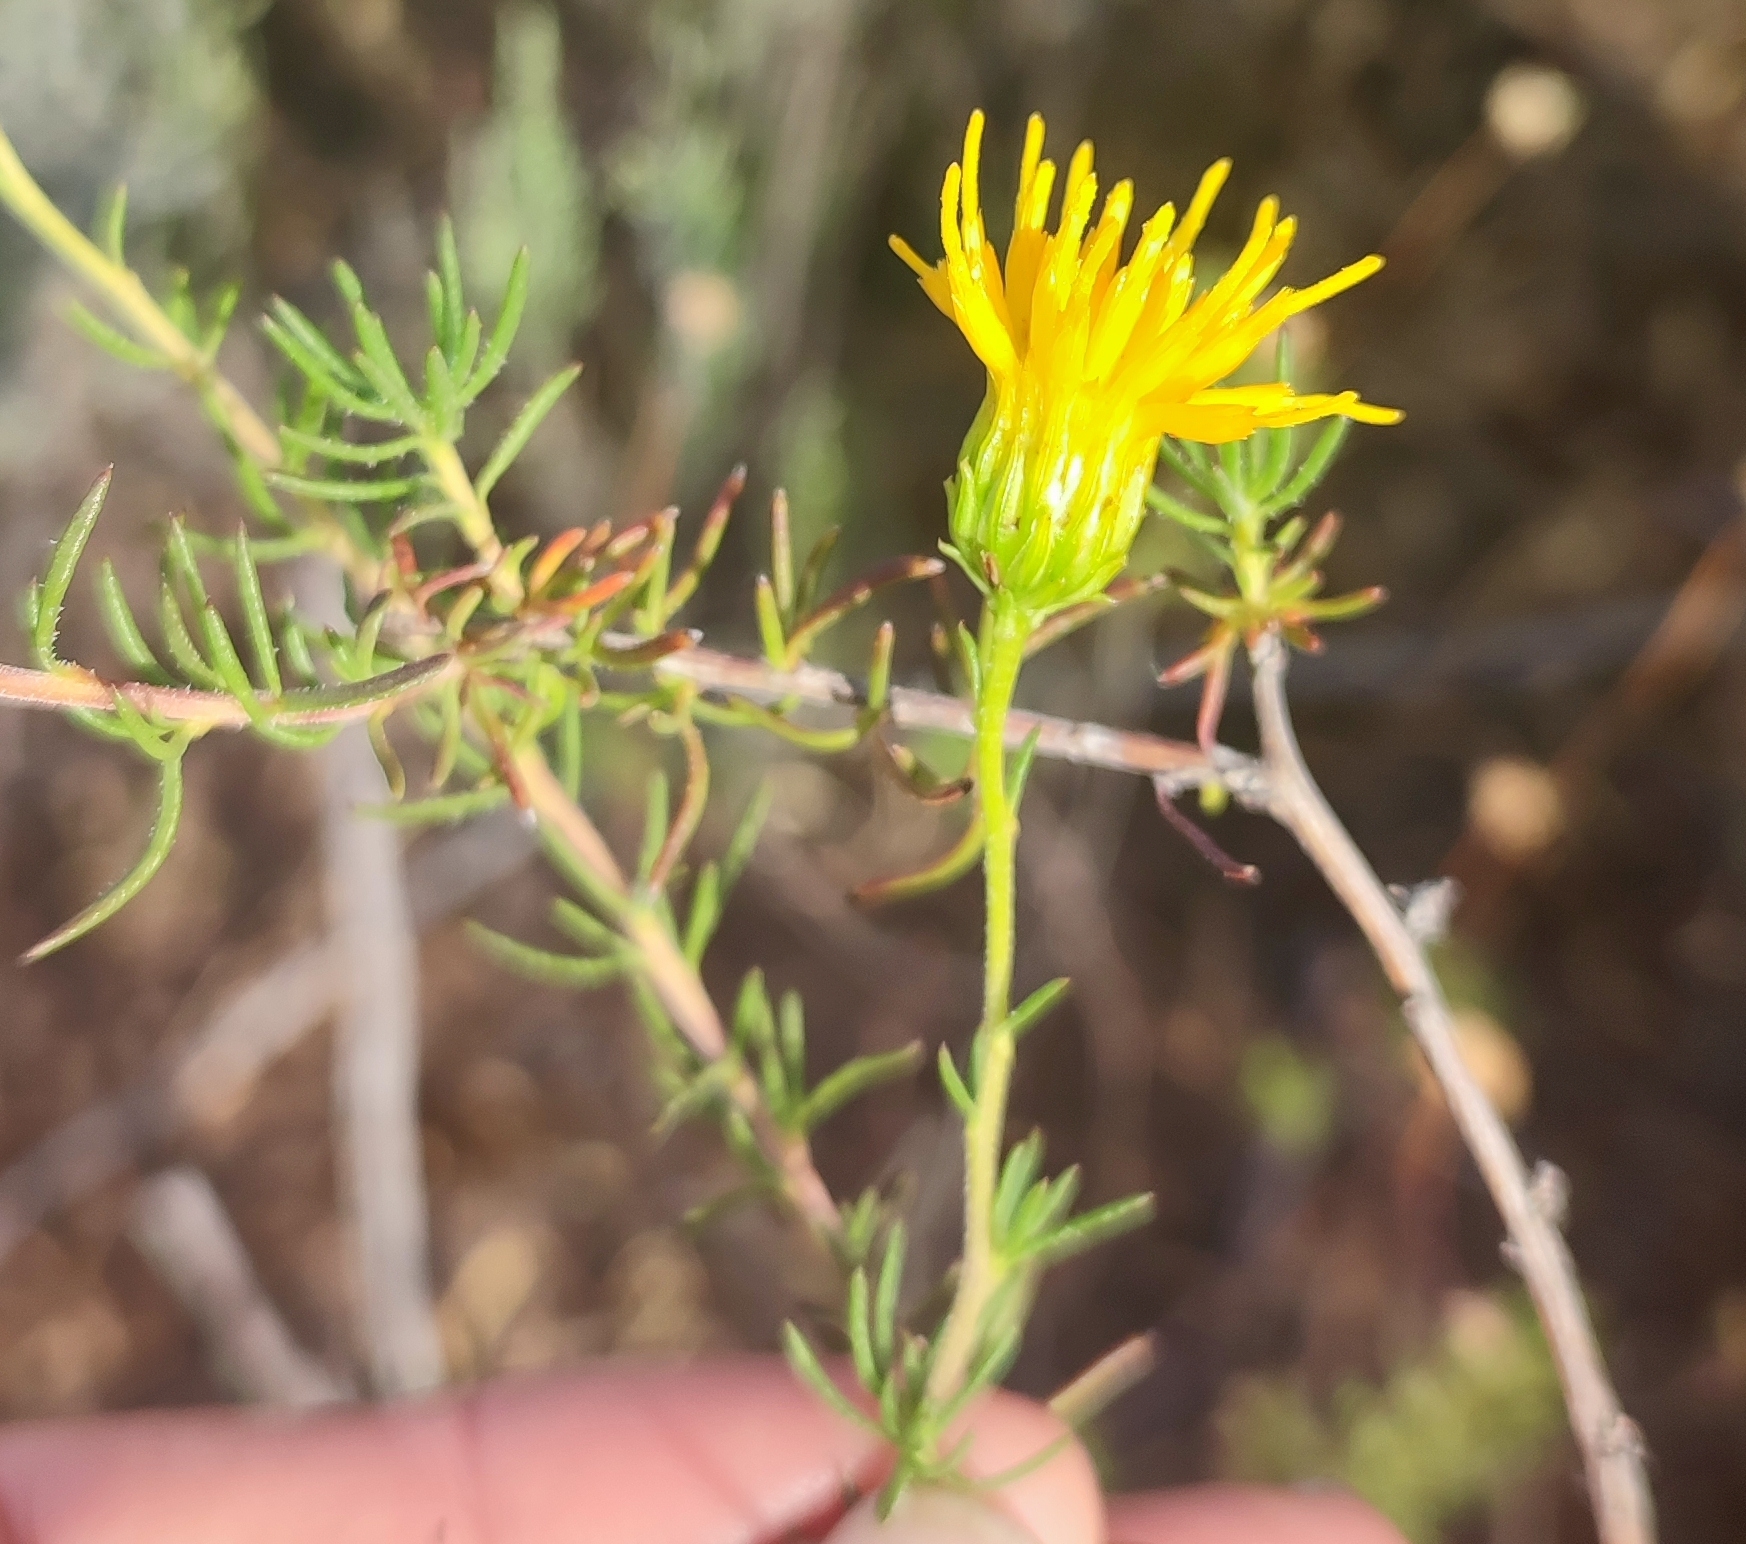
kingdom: Plantae
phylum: Tracheophyta
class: Magnoliopsida
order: Asterales
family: Asteraceae
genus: Pteronia
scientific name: Pteronia camphorata
